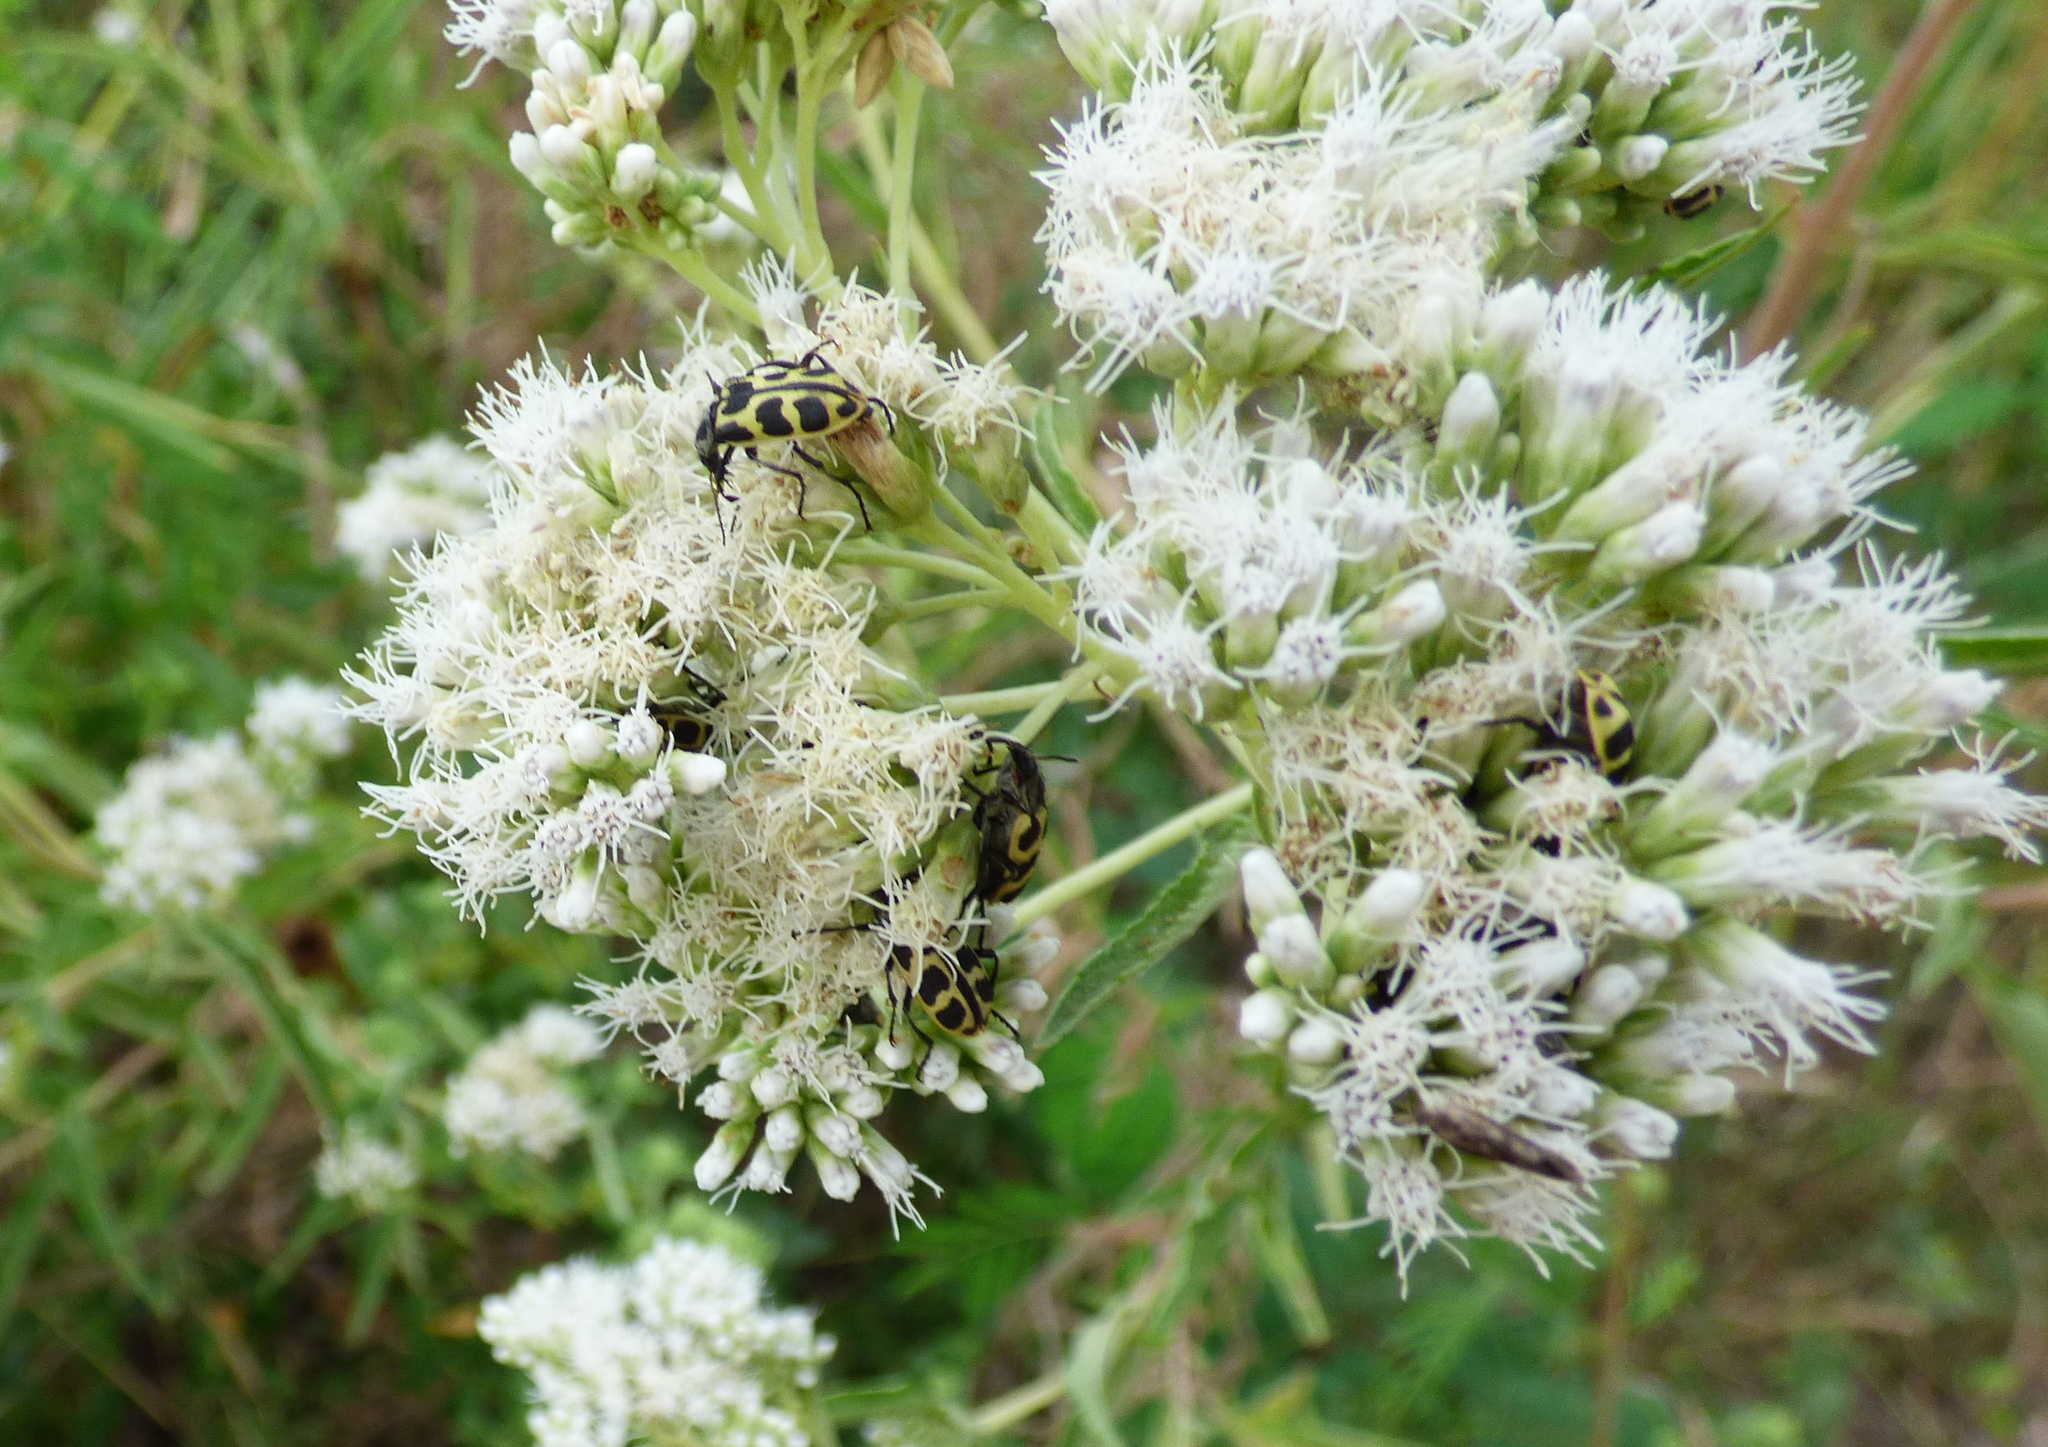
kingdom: Animalia
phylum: Arthropoda
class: Insecta
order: Coleoptera
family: Melyridae
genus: Astylus
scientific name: Astylus atromaculatus
